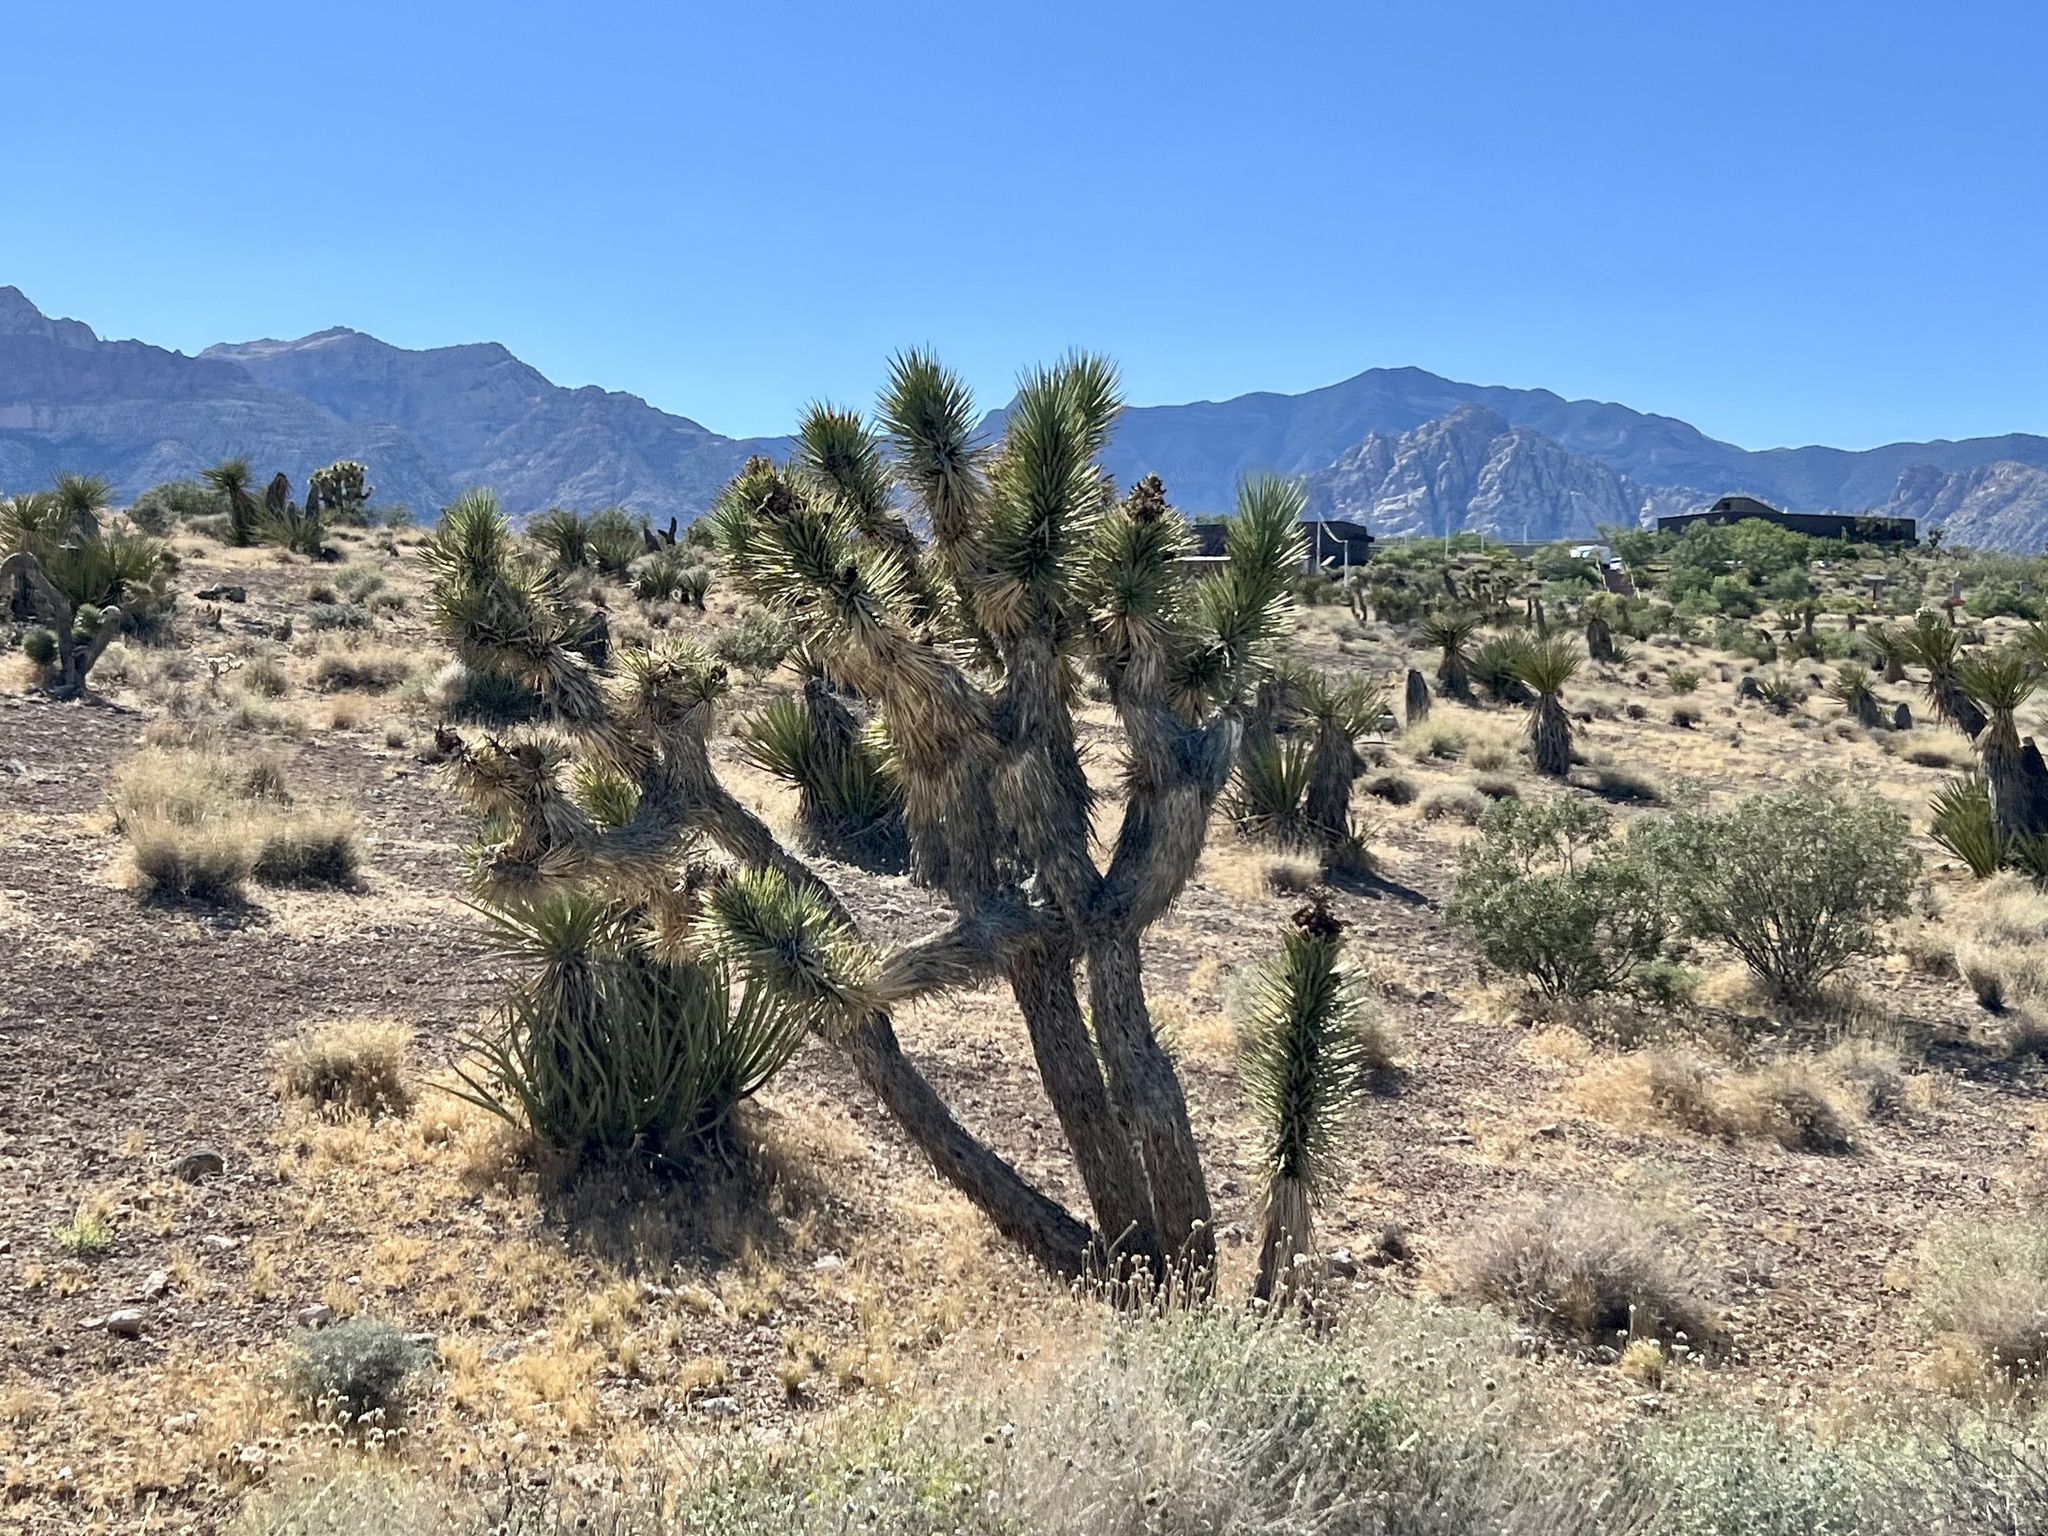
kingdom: Plantae
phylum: Tracheophyta
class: Liliopsida
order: Asparagales
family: Asparagaceae
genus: Yucca
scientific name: Yucca brevifolia
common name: Joshua tree
